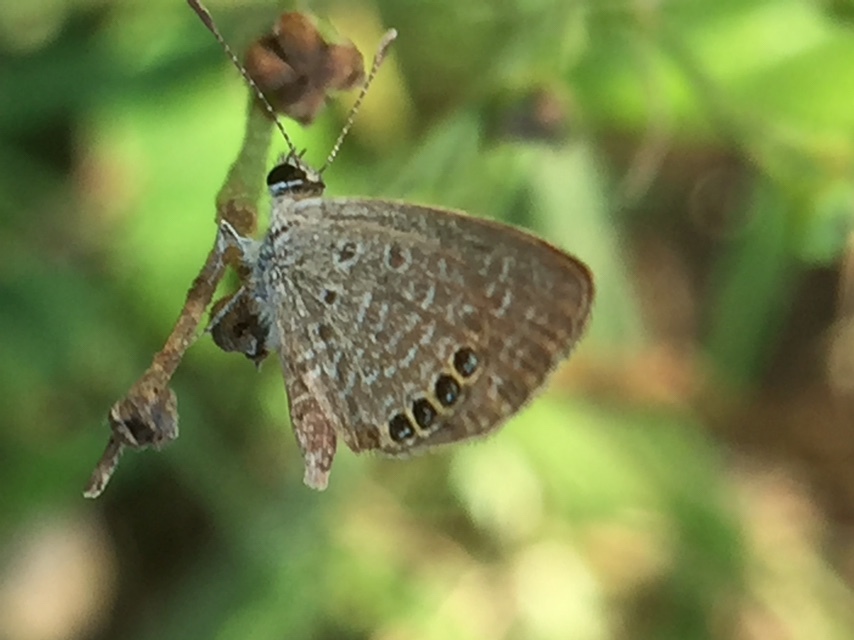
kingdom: Animalia
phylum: Arthropoda
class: Insecta
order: Lepidoptera
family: Lycaenidae
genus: Freyeria
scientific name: Freyeria putli
